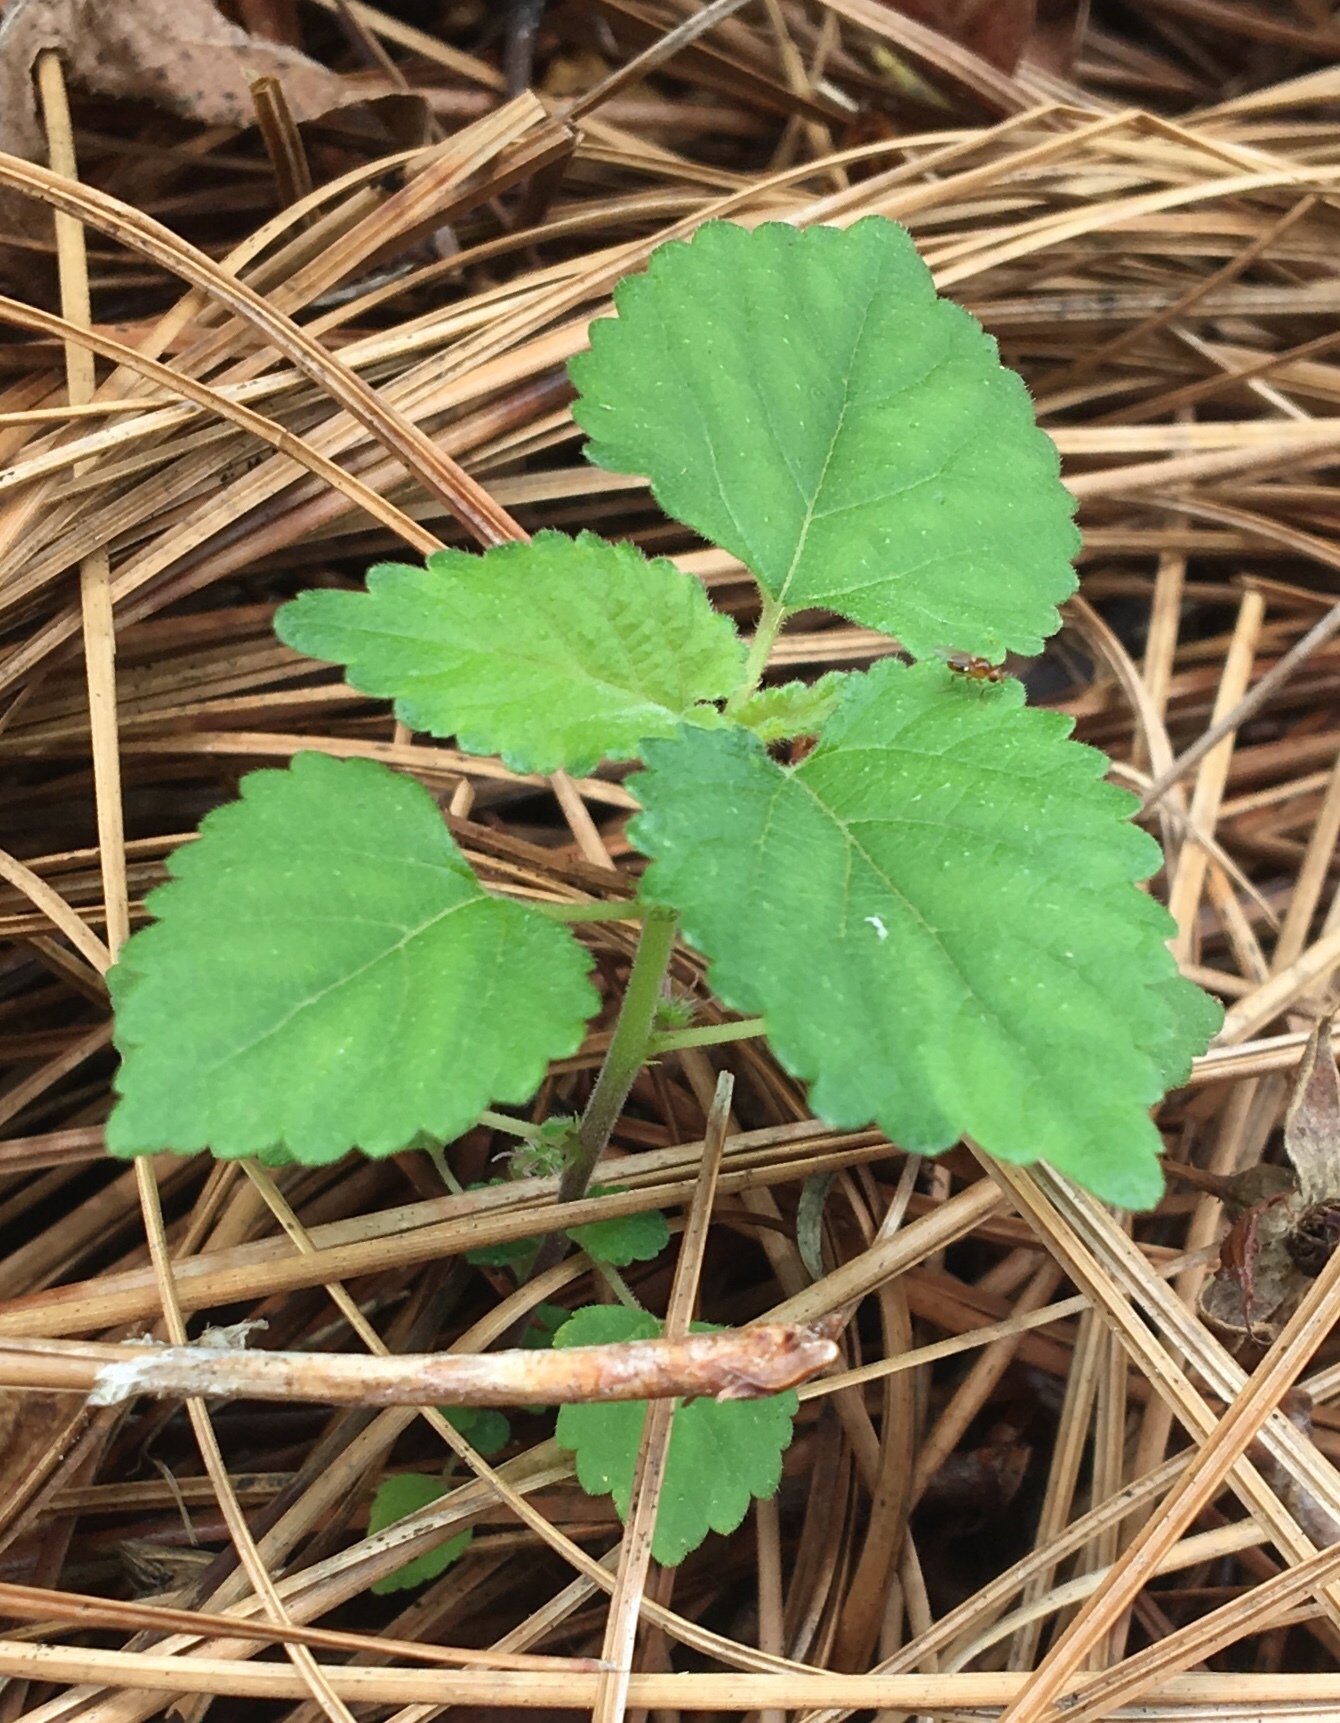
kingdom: Plantae
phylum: Tracheophyta
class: Magnoliopsida
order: Rosales
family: Moraceae
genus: Fatoua
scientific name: Fatoua villosa
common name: Hairy crabweed
